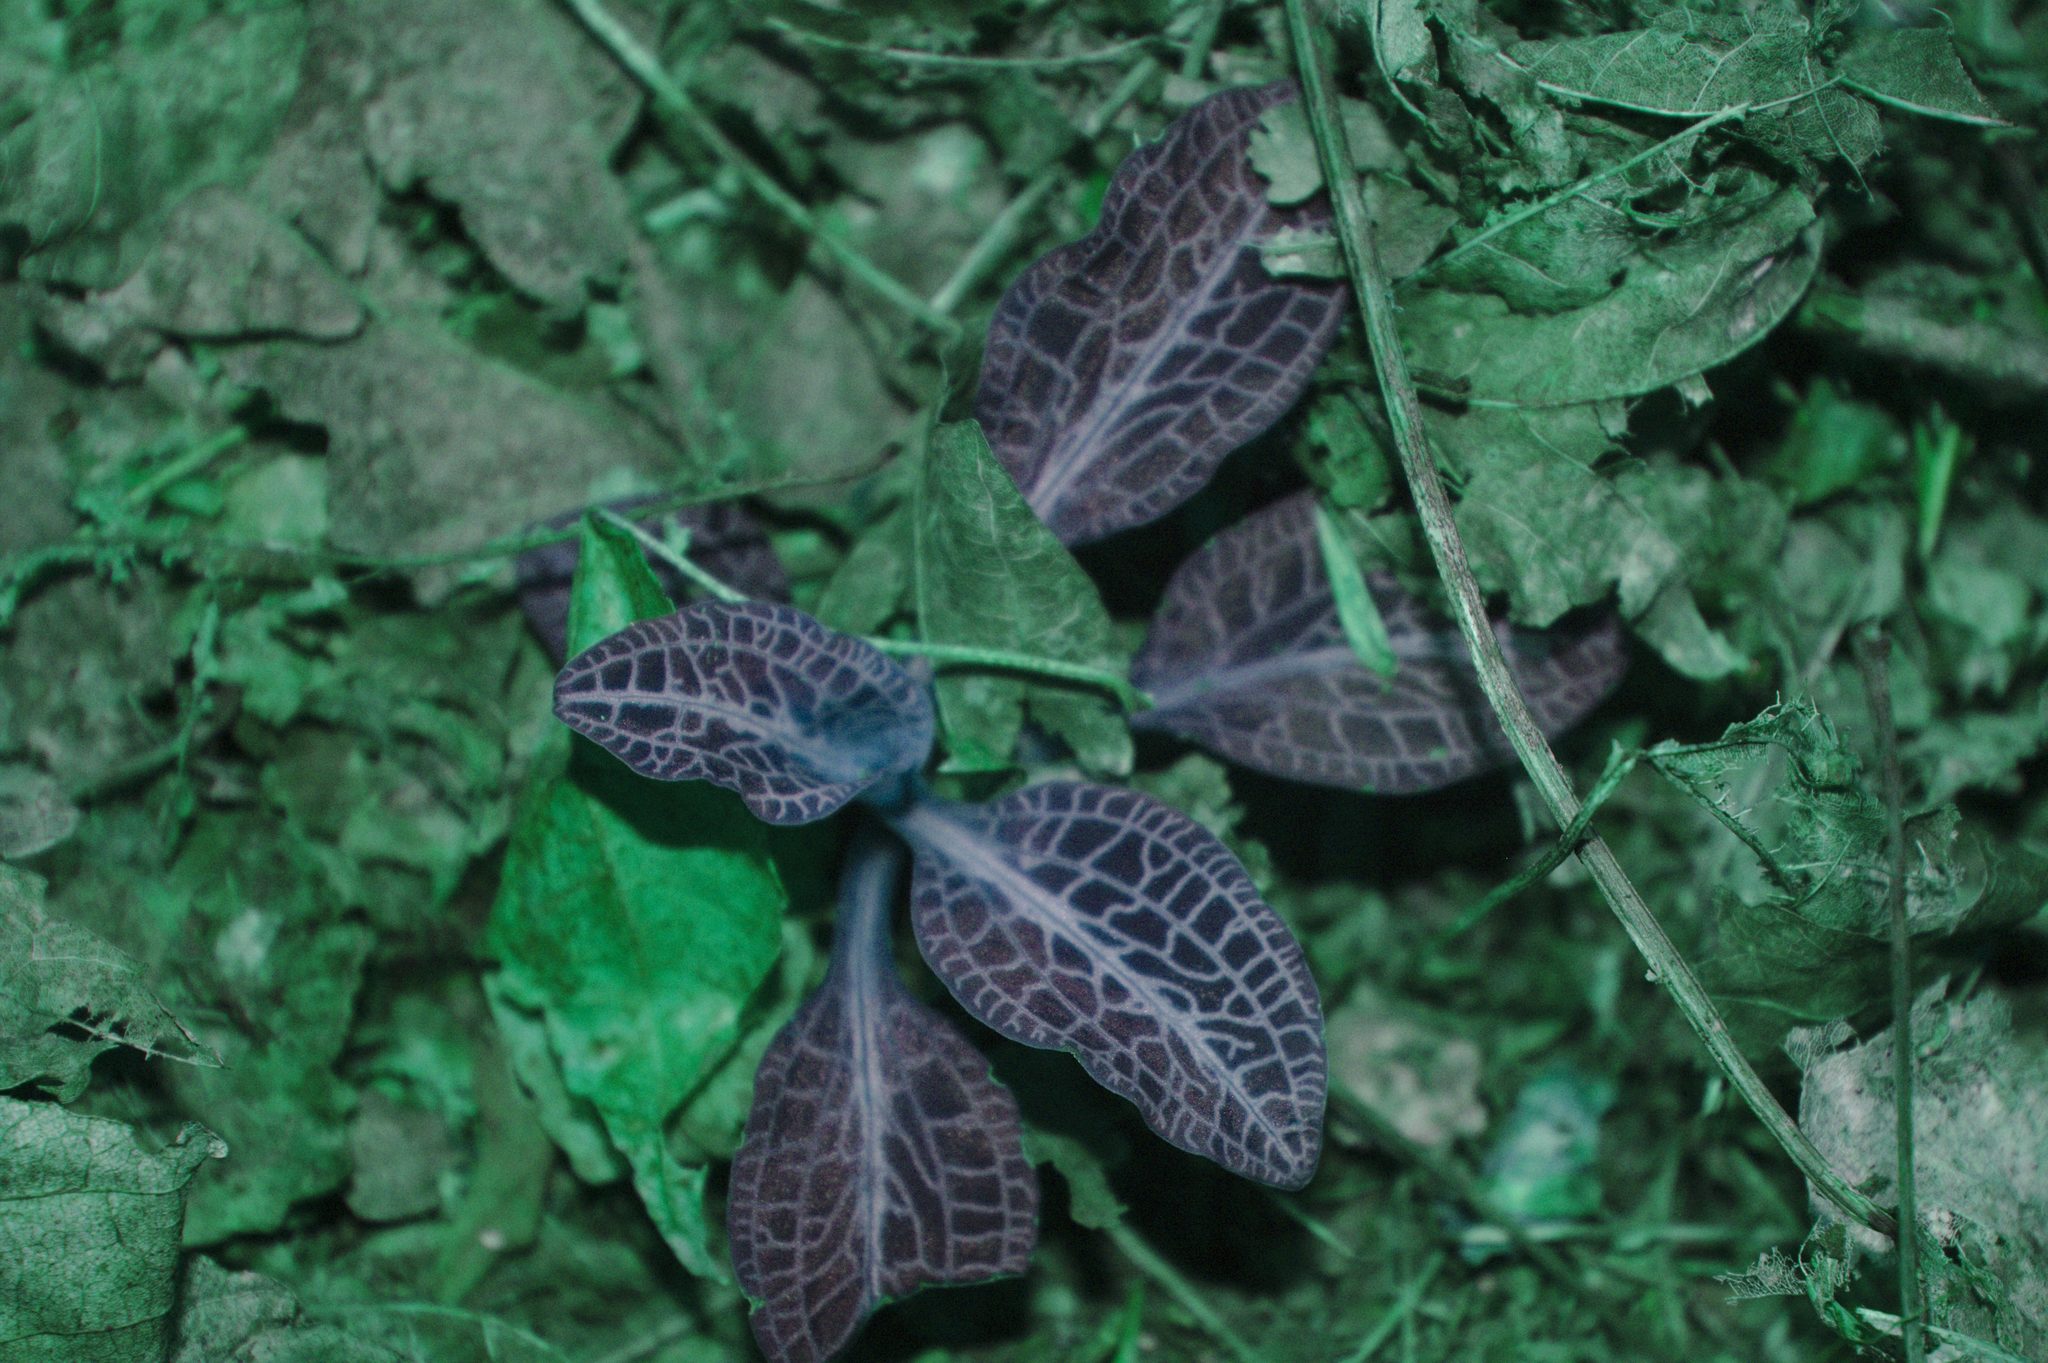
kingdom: Plantae
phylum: Tracheophyta
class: Liliopsida
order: Asparagales
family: Orchidaceae
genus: Goodyera
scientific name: Goodyera pubescens
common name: Downy rattlesnake-plantain
